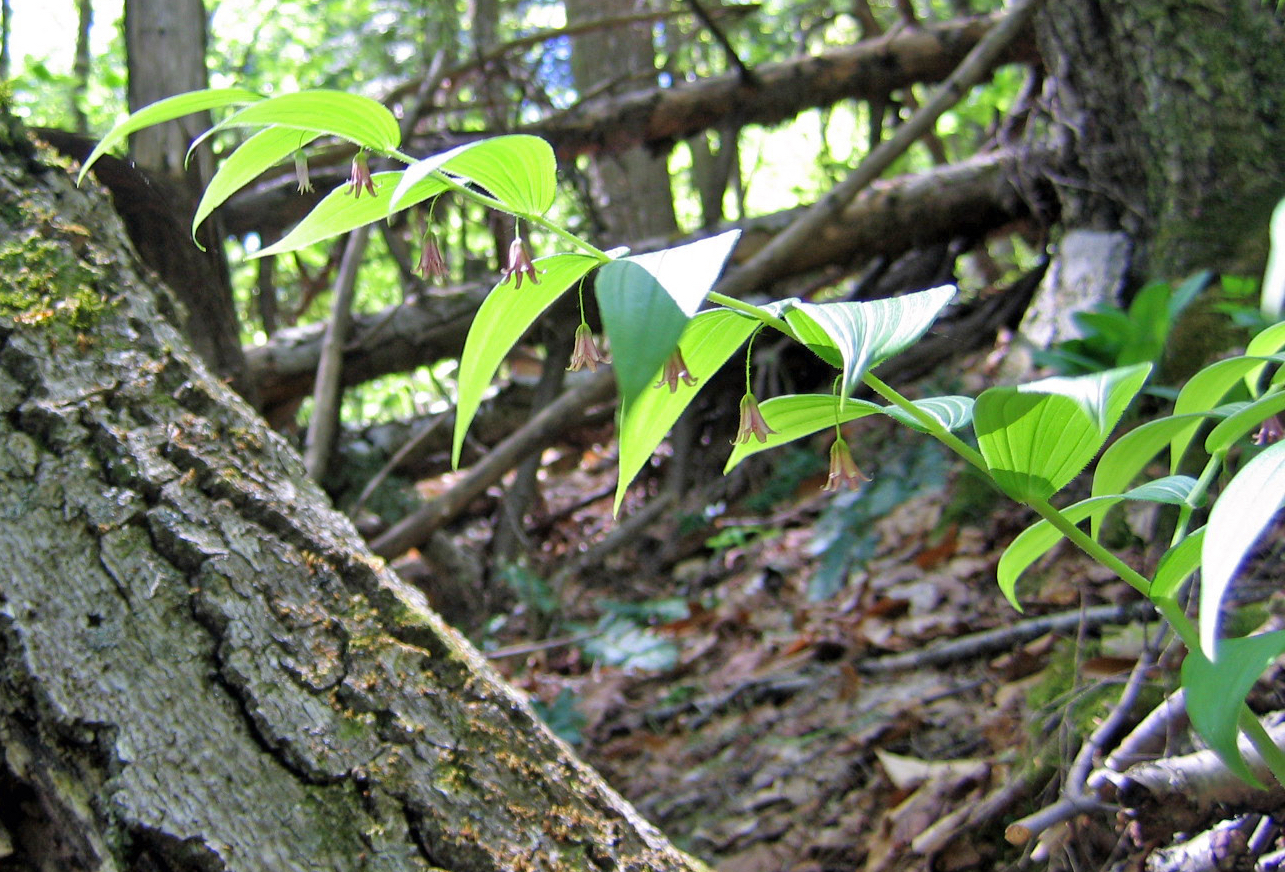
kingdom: Plantae
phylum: Tracheophyta
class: Liliopsida
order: Liliales
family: Liliaceae
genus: Streptopus
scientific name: Streptopus lanceolatus
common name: Rose mandarin
